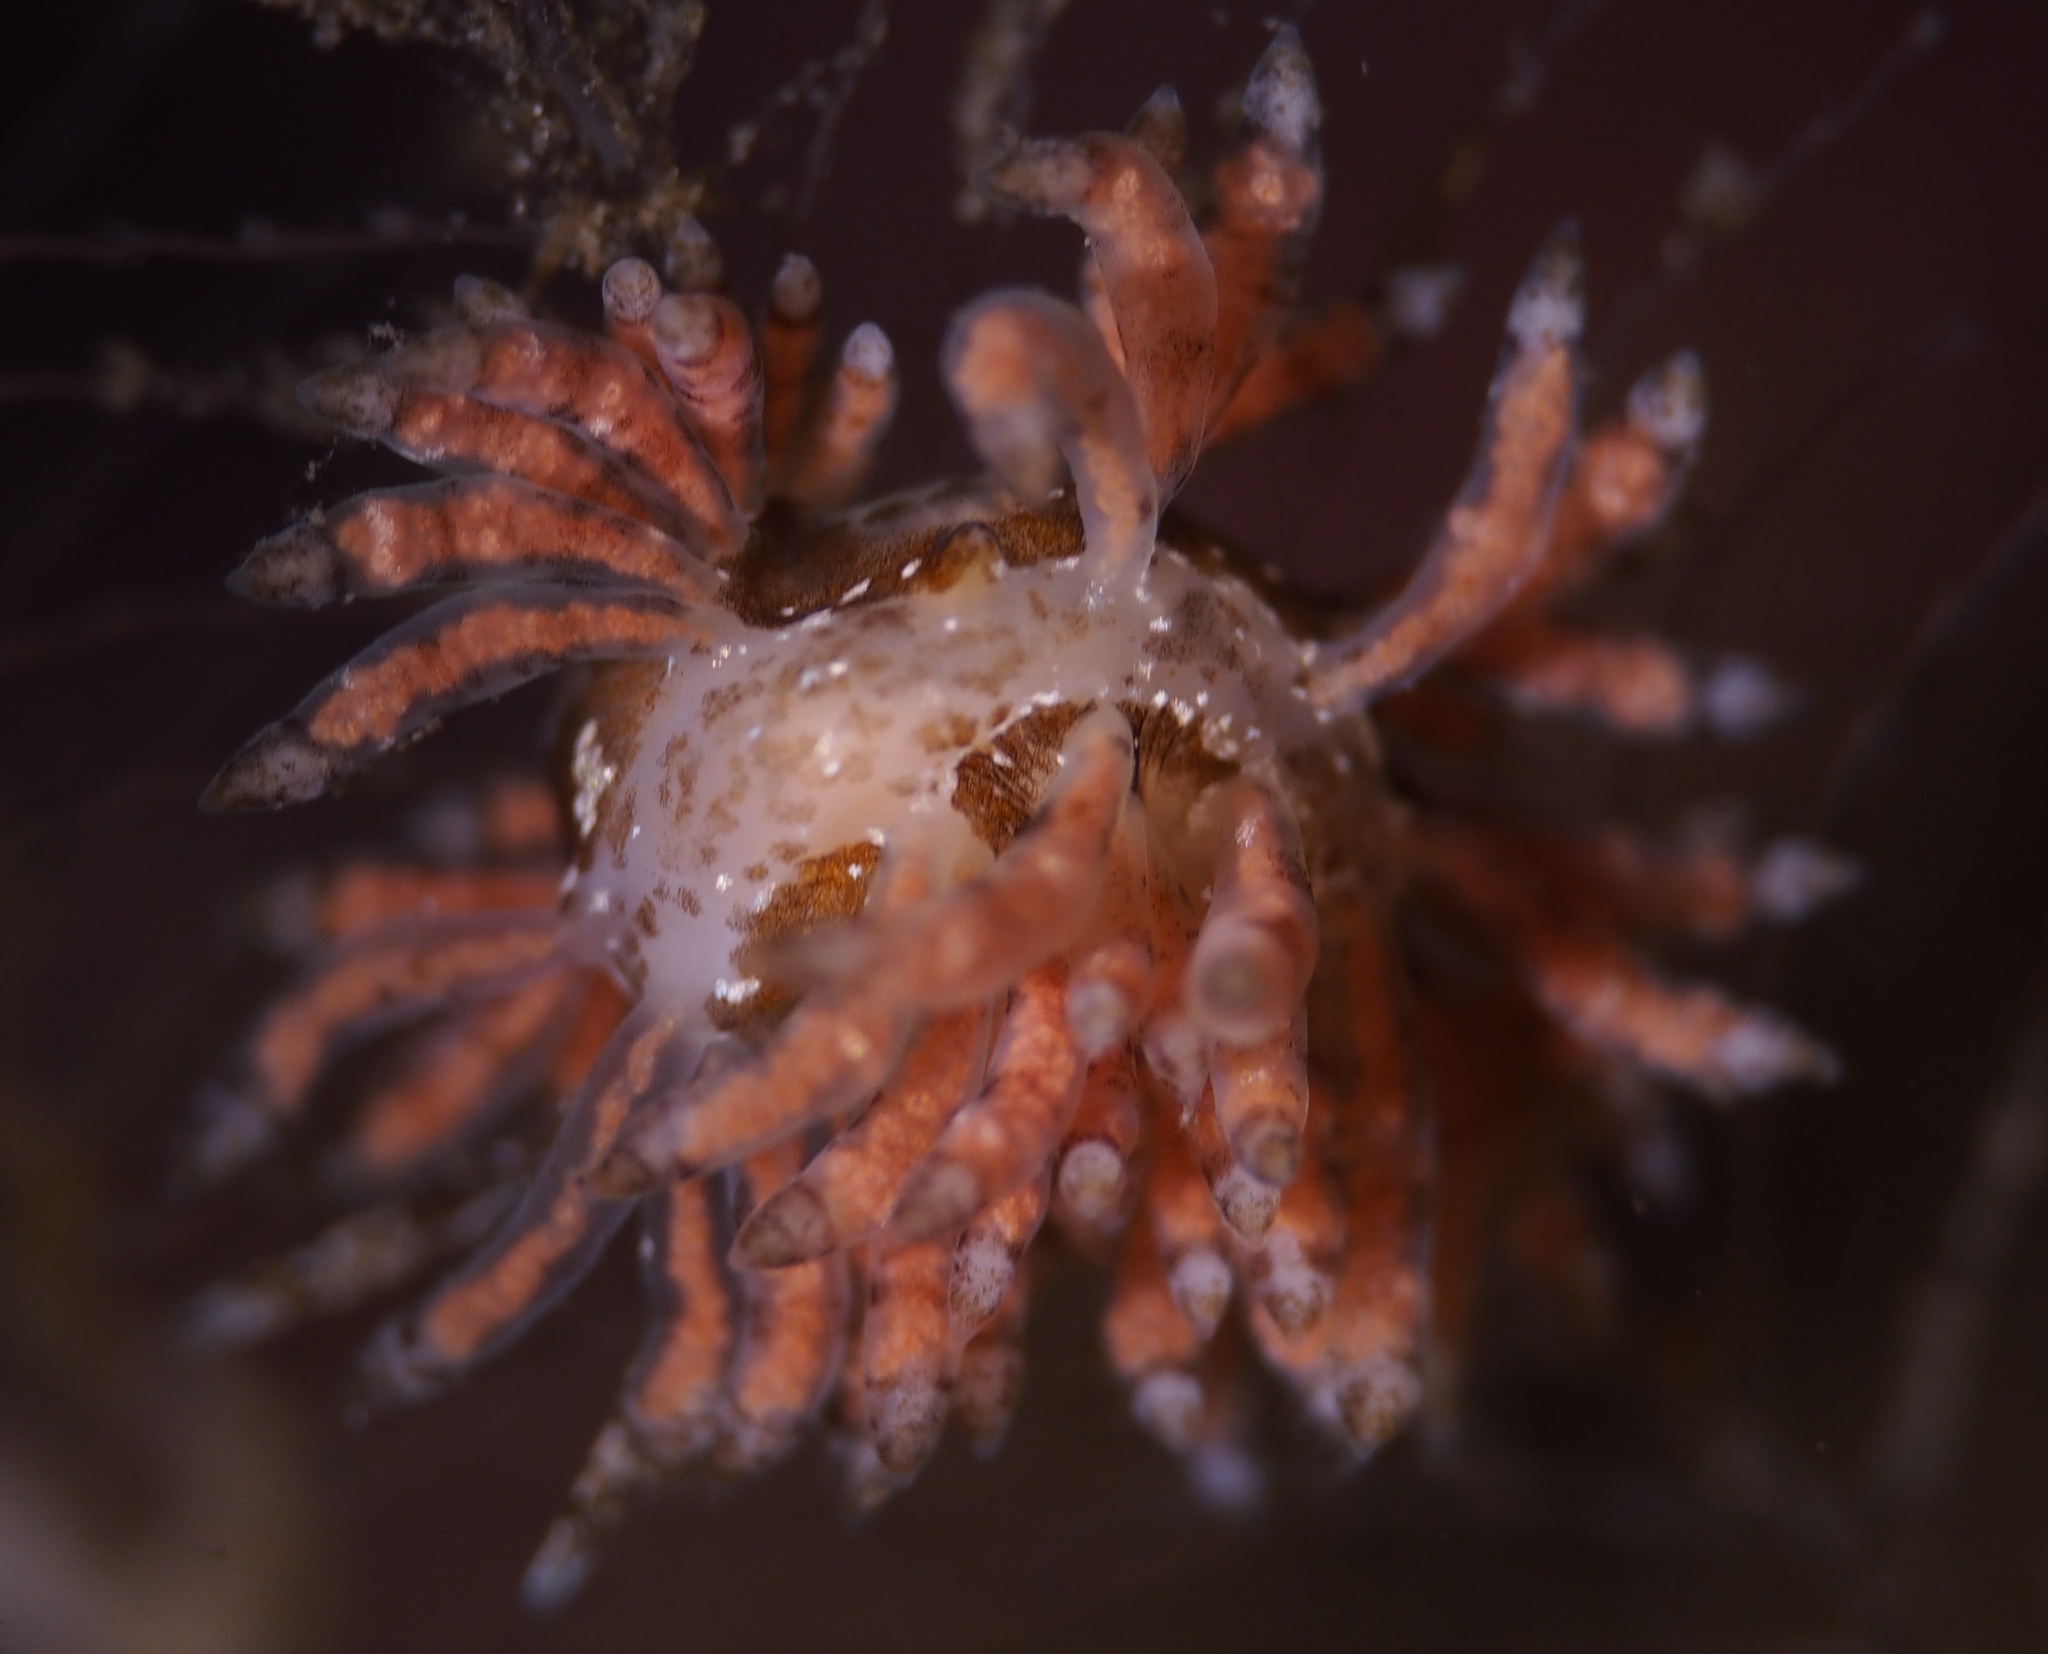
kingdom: Animalia
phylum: Mollusca
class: Gastropoda
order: Nudibranchia
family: Eubranchidae
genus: Eubranchus
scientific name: Eubranchus vittatus
